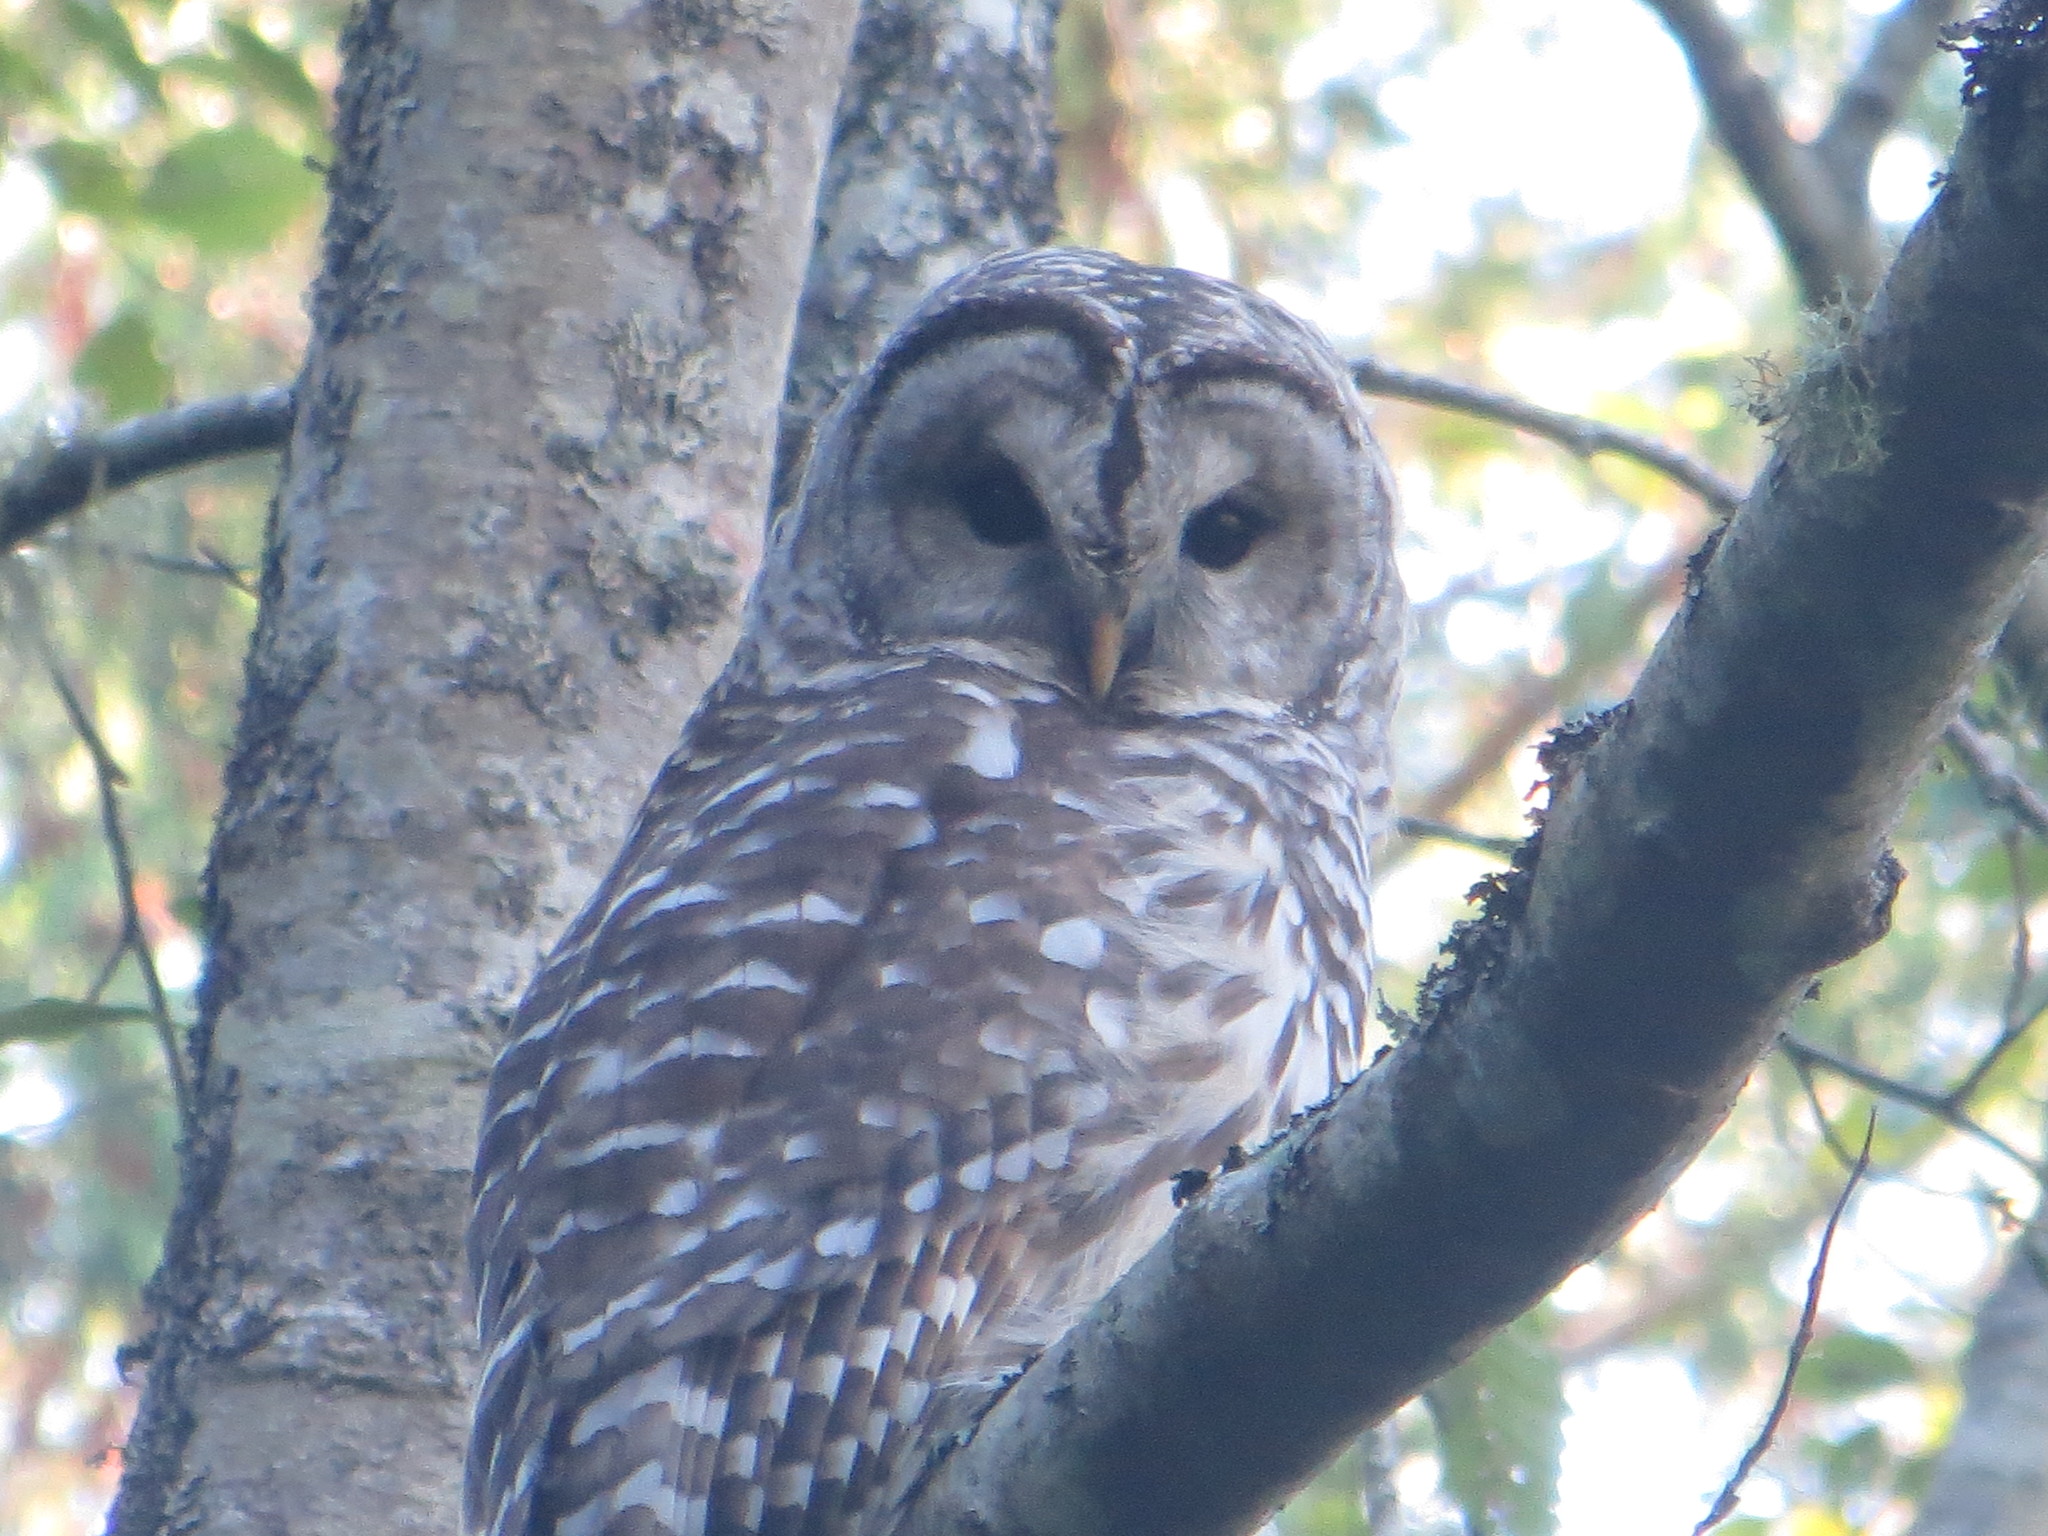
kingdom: Animalia
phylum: Chordata
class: Aves
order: Strigiformes
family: Strigidae
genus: Strix
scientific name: Strix varia
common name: Barred owl
